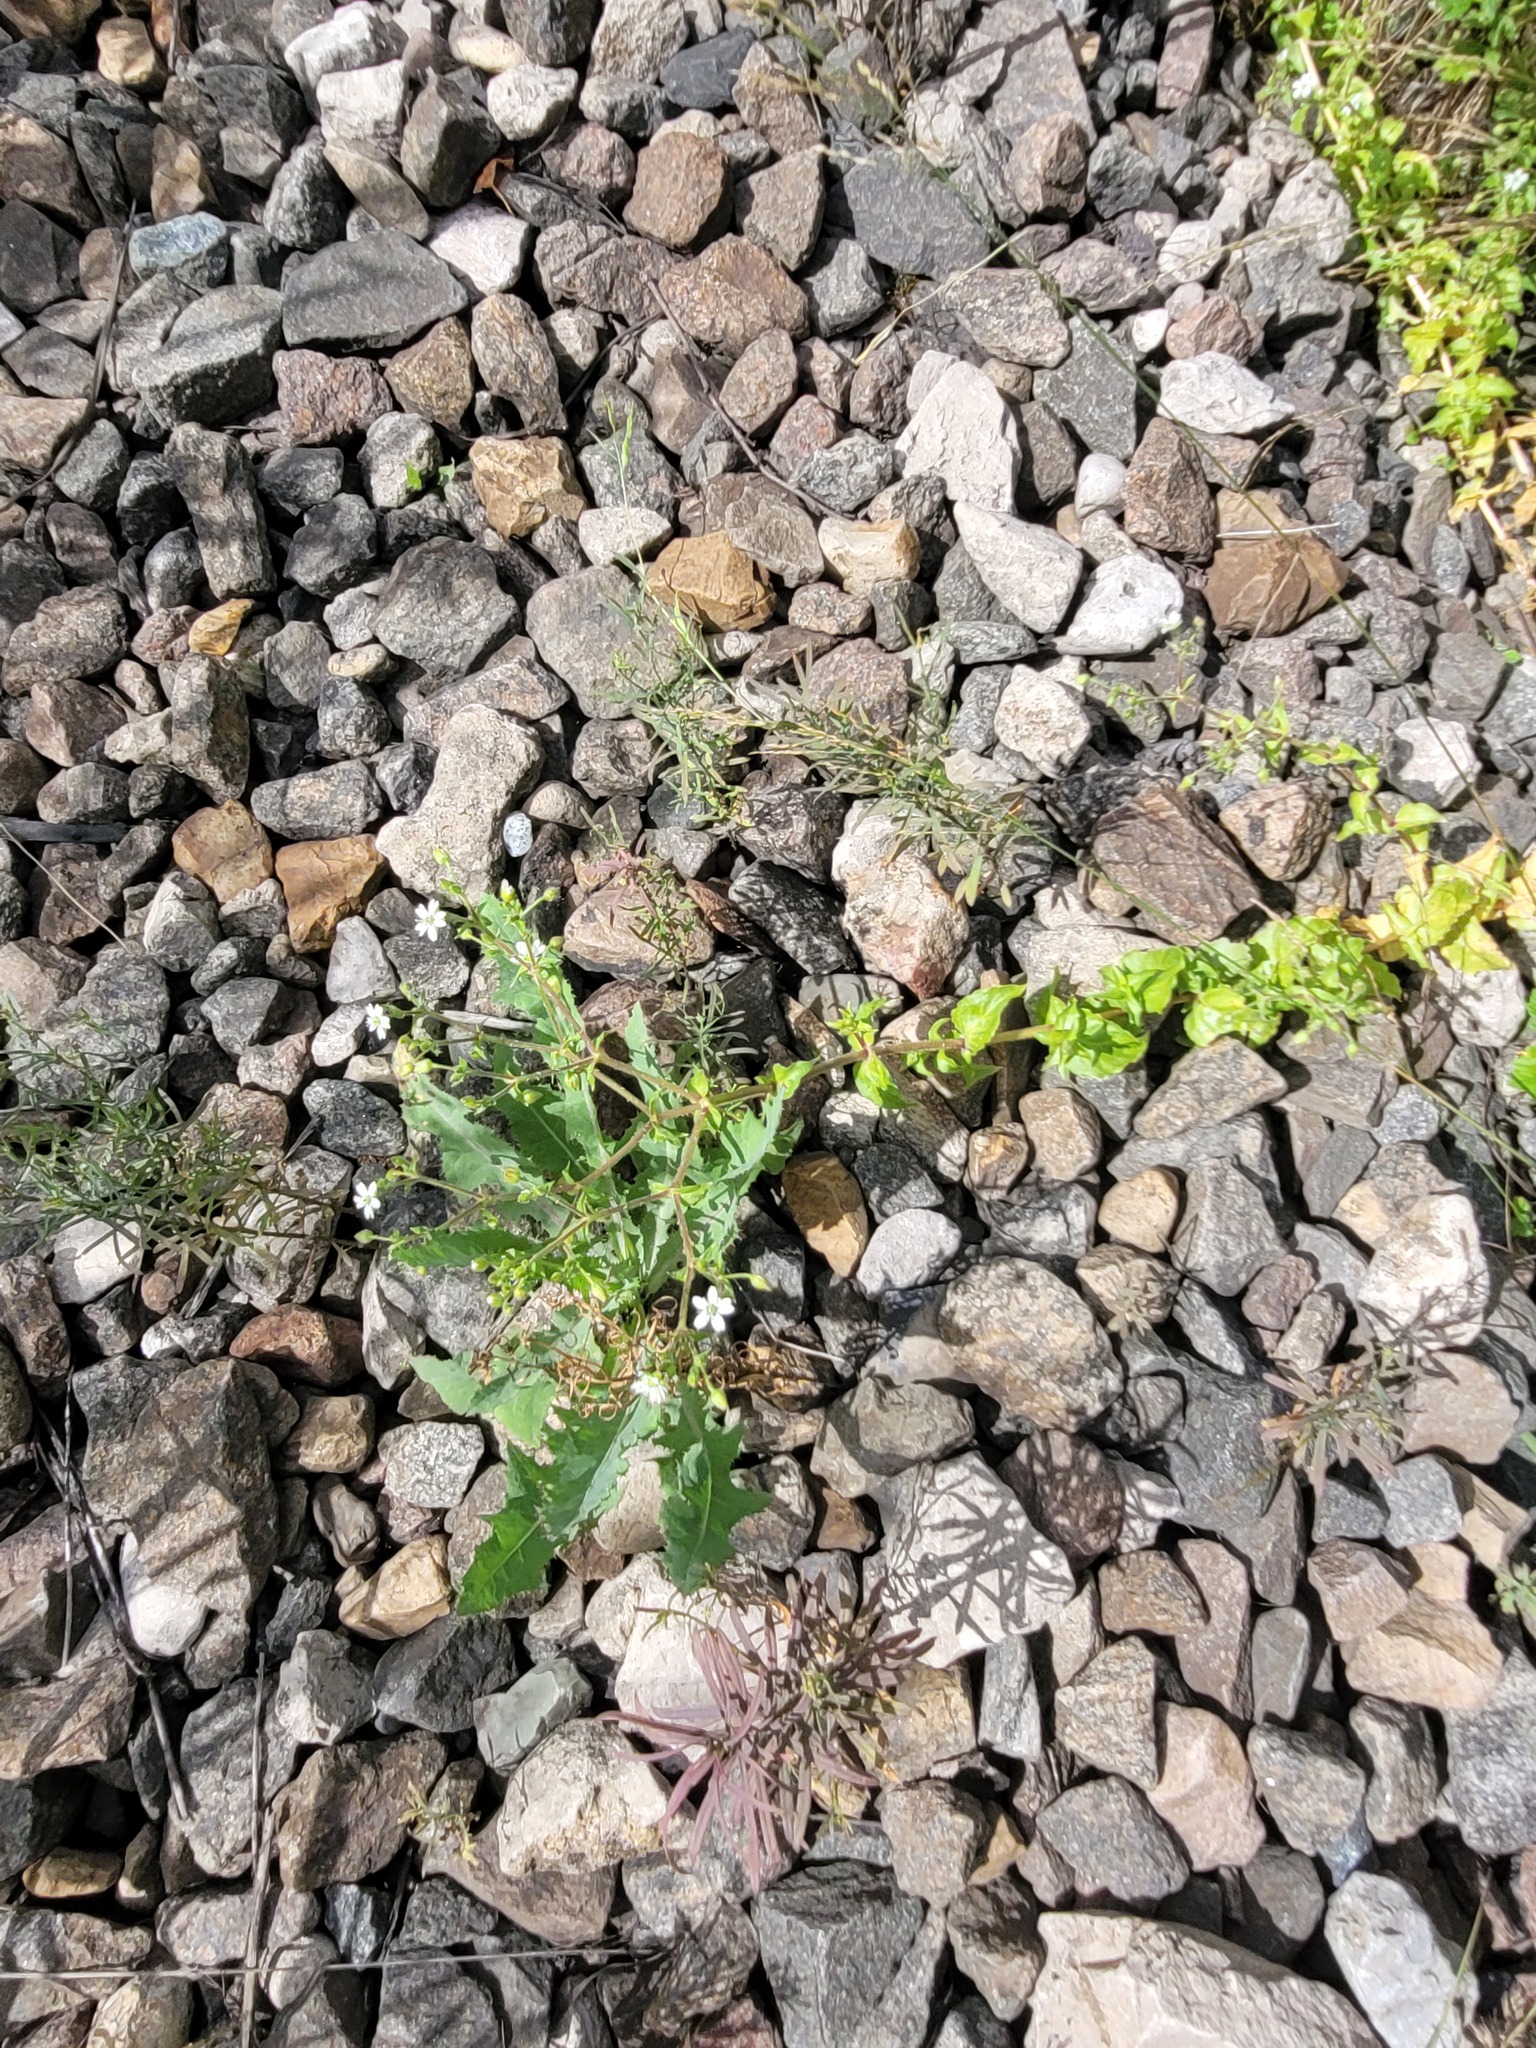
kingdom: Plantae
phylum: Tracheophyta
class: Magnoliopsida
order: Caryophyllales
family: Caryophyllaceae
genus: Stellaria
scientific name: Stellaria aquatica
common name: Water chickweed
